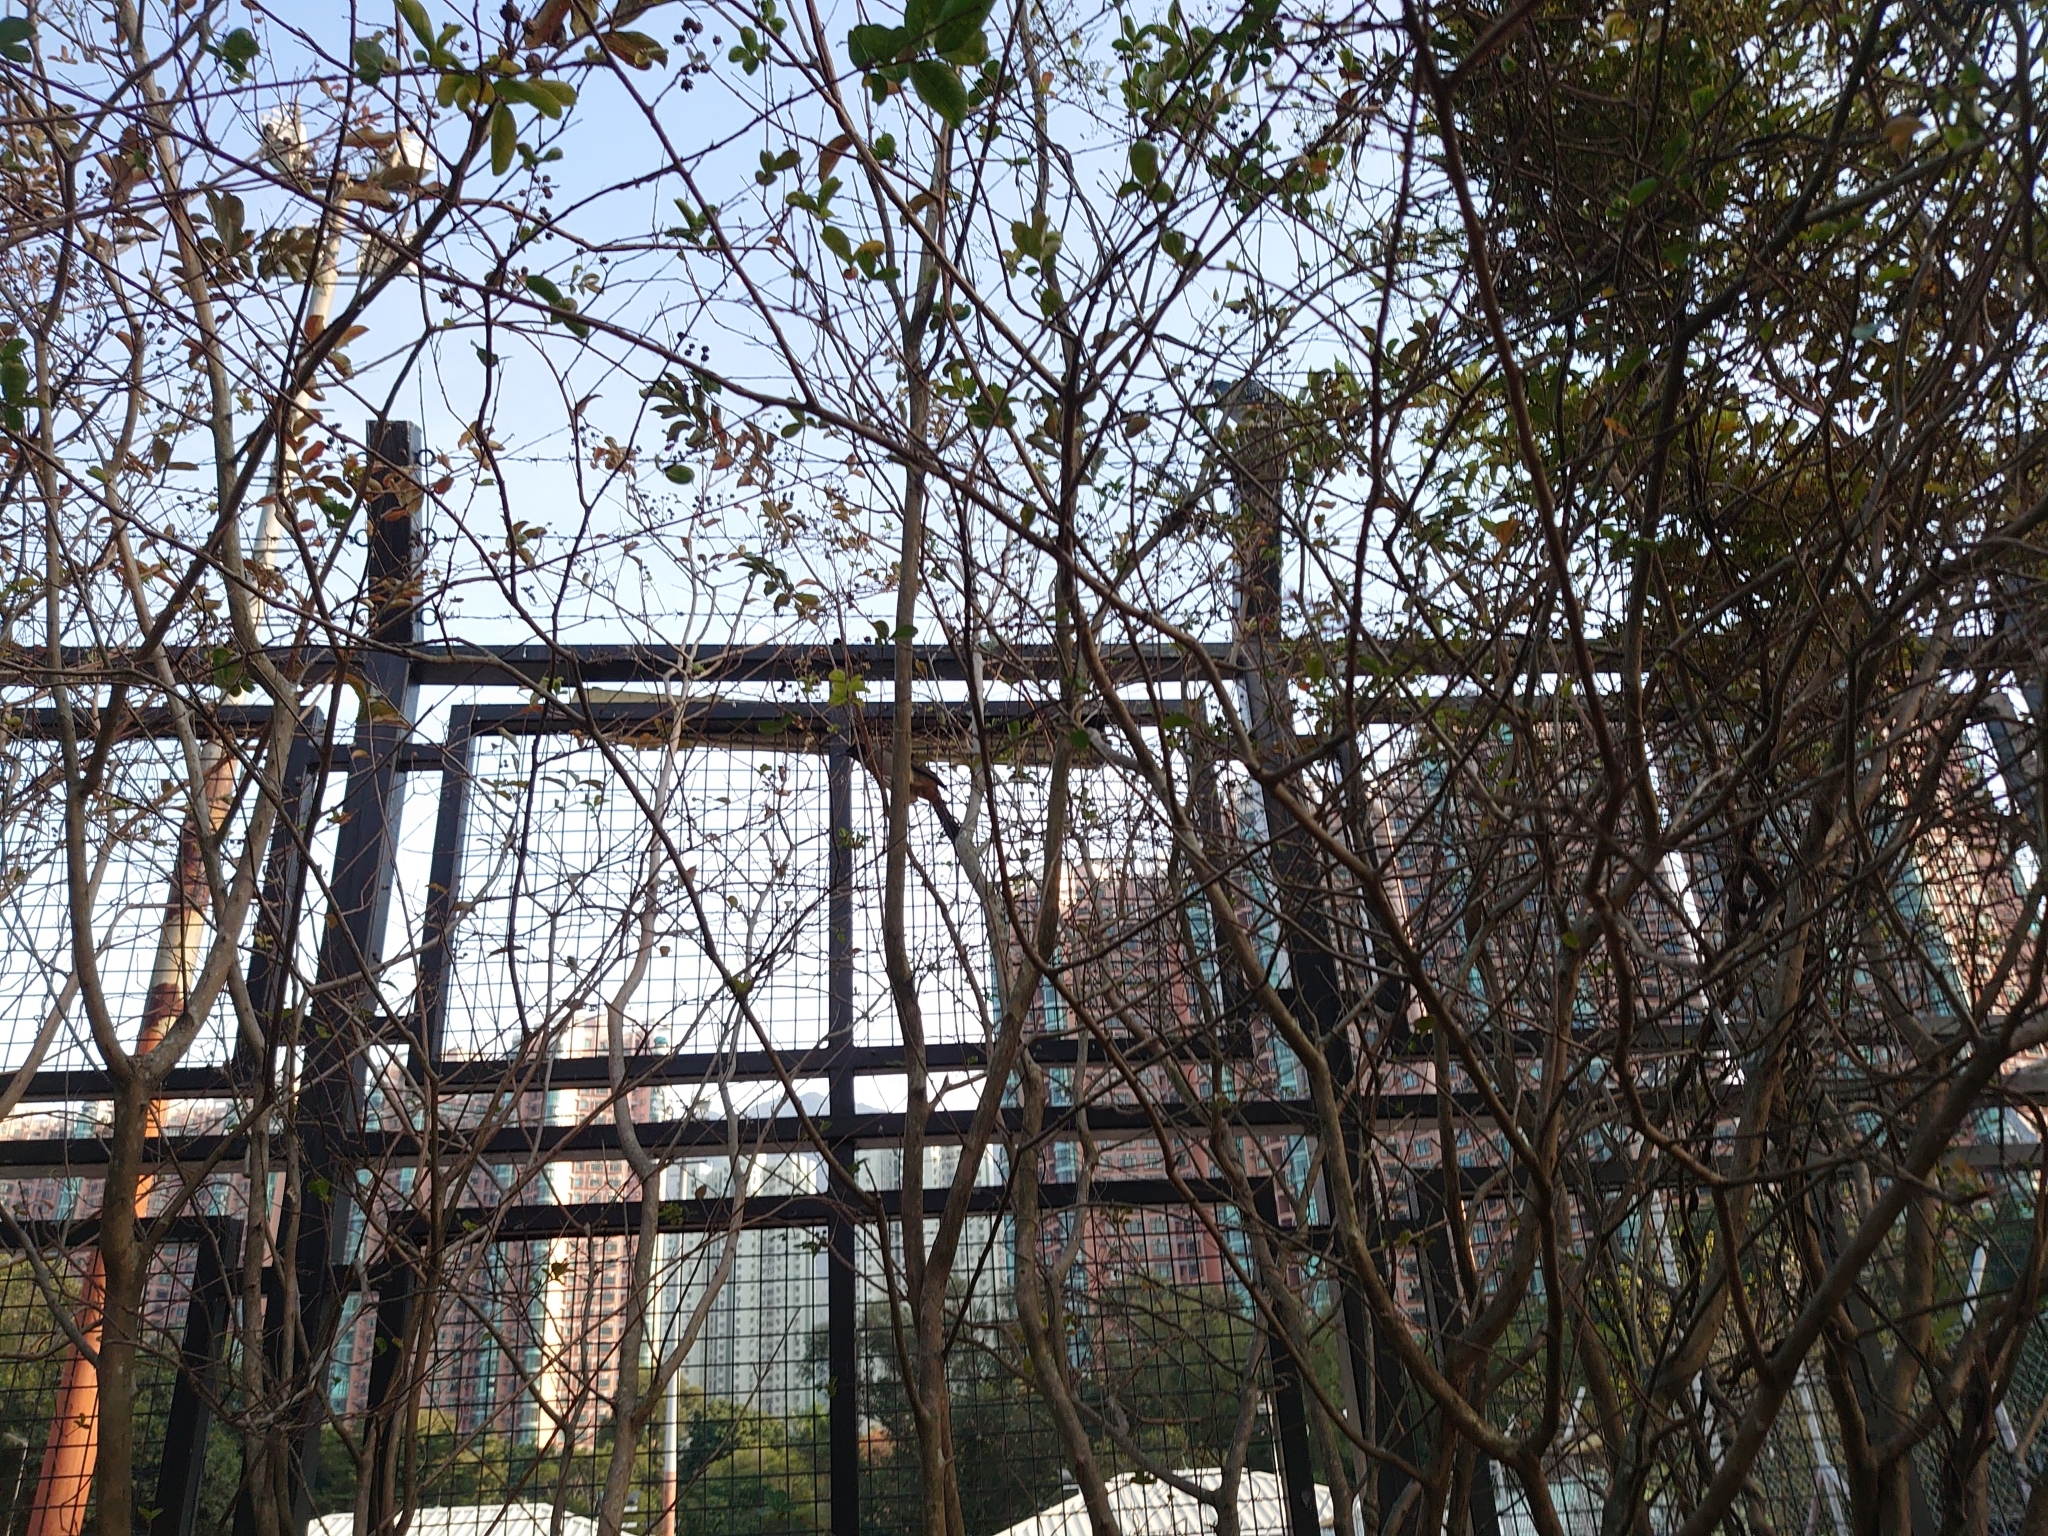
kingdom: Animalia
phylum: Chordata
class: Aves
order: Passeriformes
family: Leiothrichidae
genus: Garrulax
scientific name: Garrulax perspicillatus
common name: Masked laughingthrush
